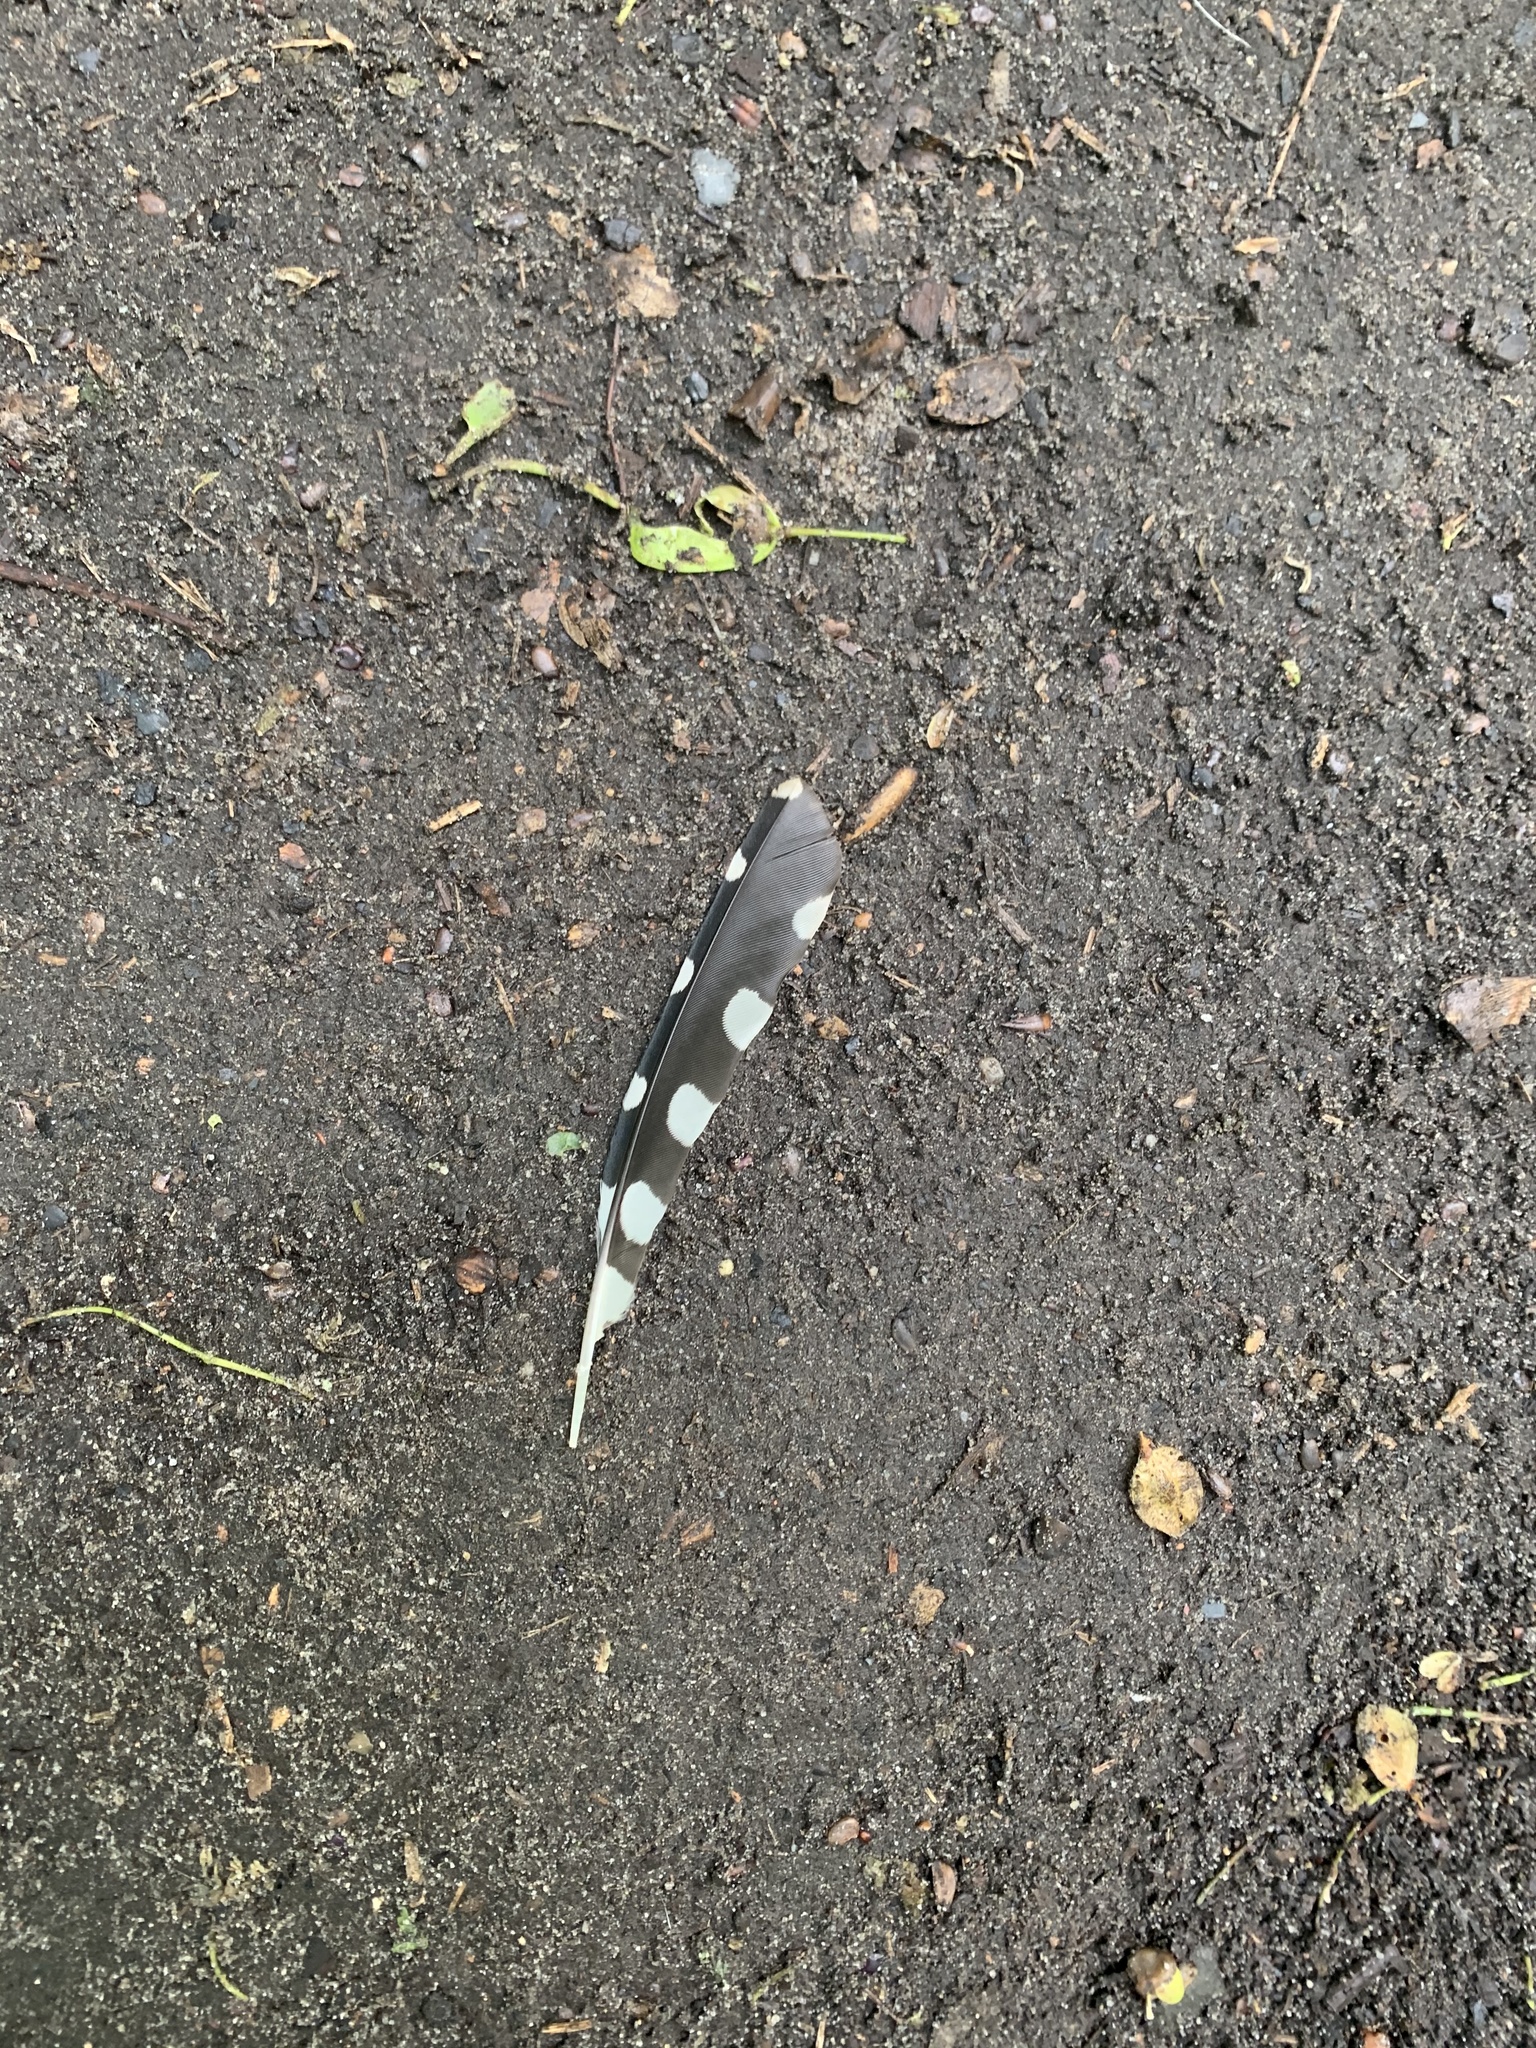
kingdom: Animalia
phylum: Chordata
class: Aves
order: Piciformes
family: Picidae
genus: Dendrocopos
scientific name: Dendrocopos major
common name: Great spotted woodpecker
